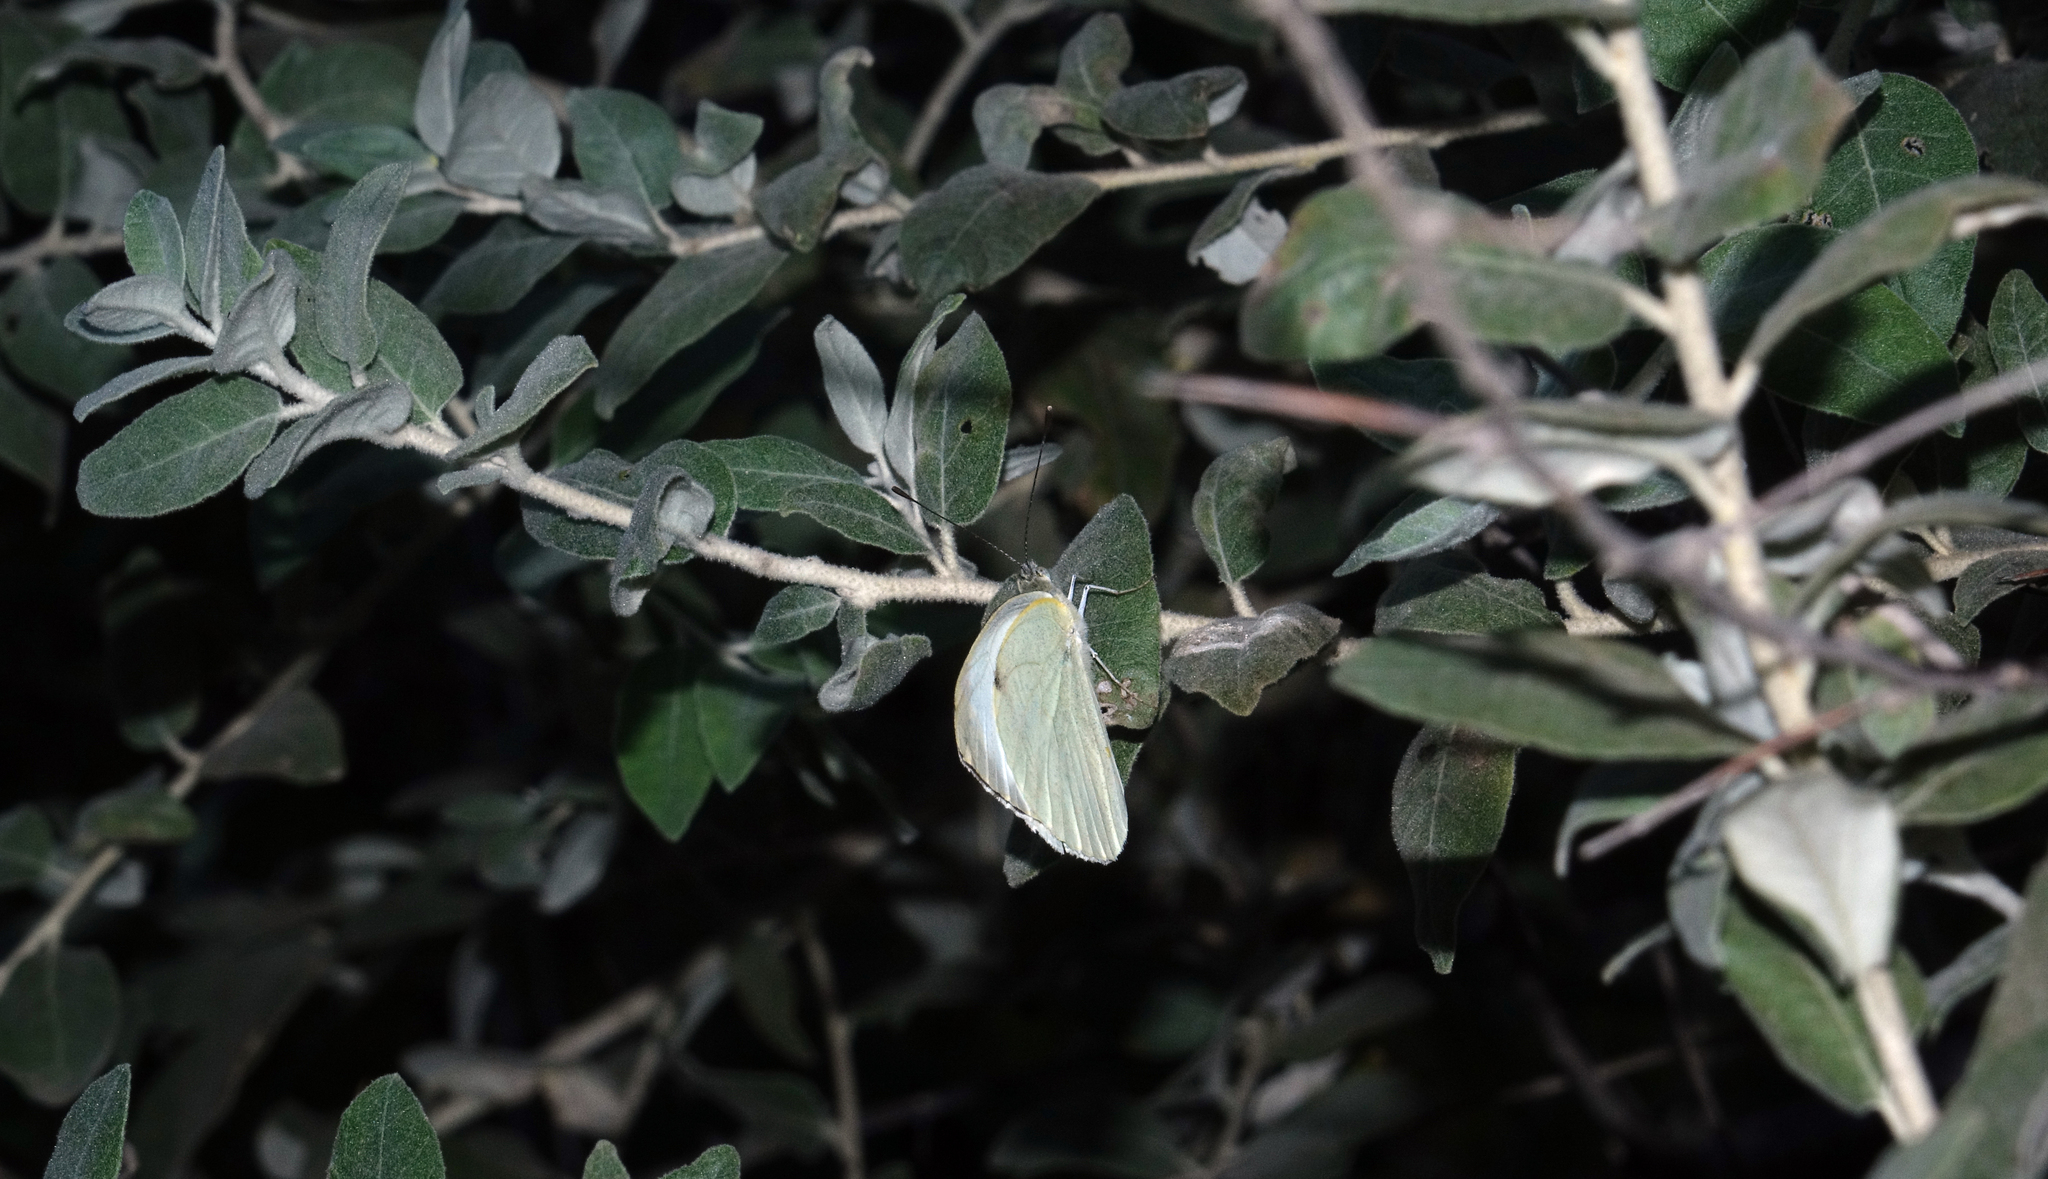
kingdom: Animalia
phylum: Arthropoda
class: Insecta
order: Lepidoptera
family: Pieridae
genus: Pieris
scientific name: Pieris brassicae
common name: Large white
